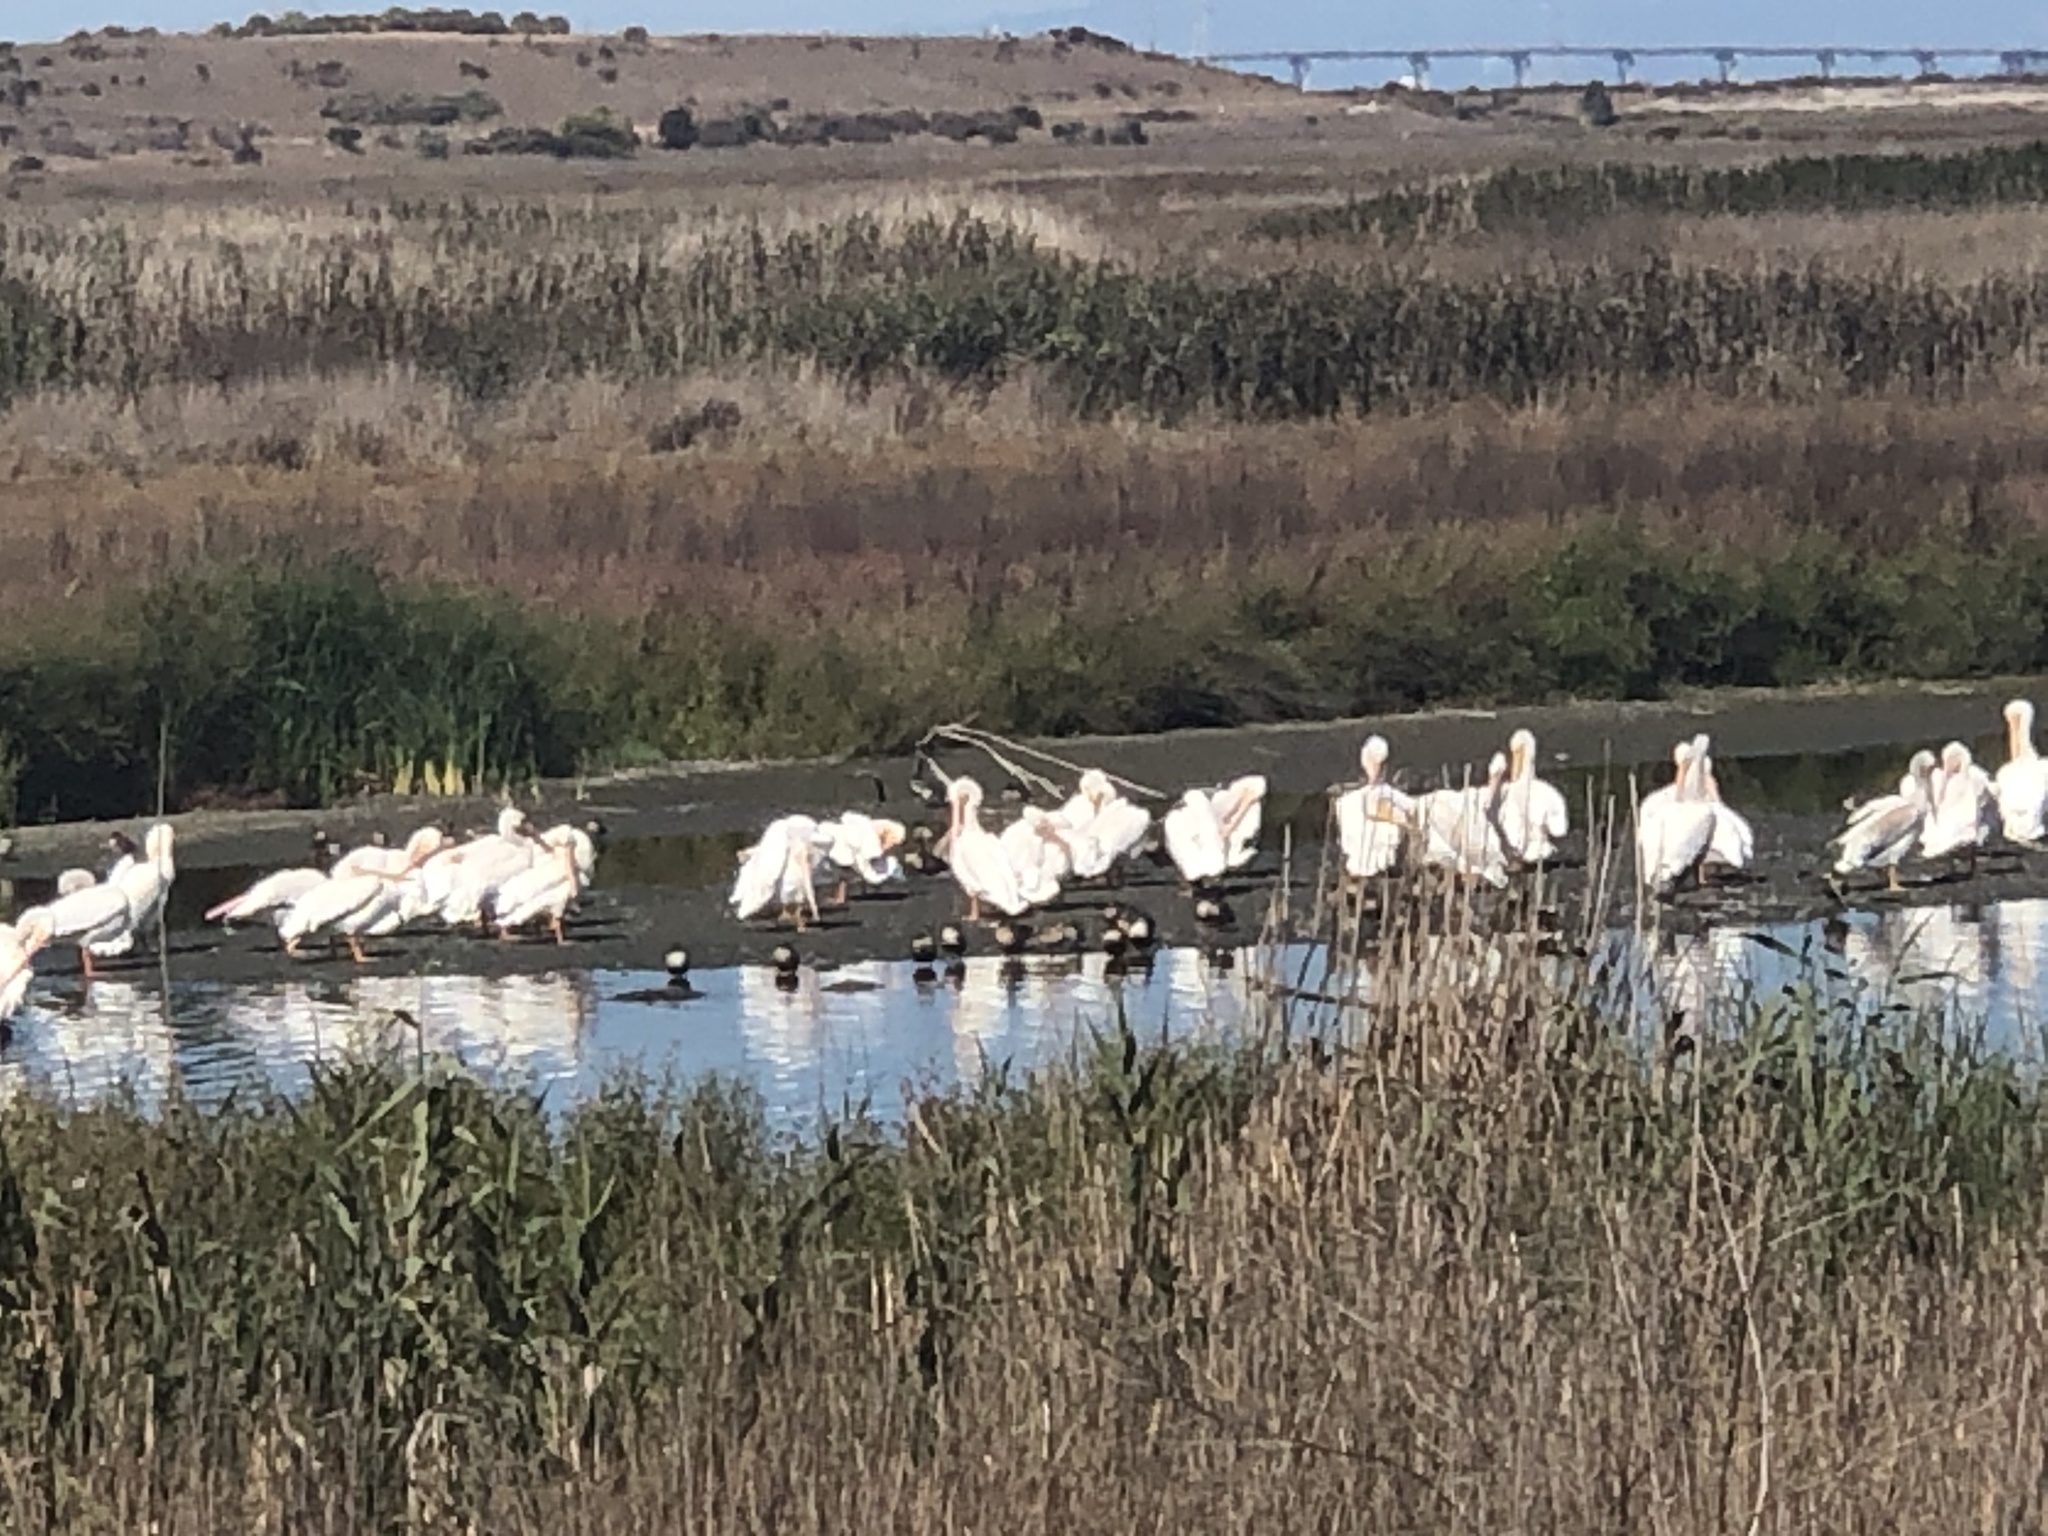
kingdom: Animalia
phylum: Chordata
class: Aves
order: Pelecaniformes
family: Pelecanidae
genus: Pelecanus
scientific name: Pelecanus erythrorhynchos
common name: American white pelican
